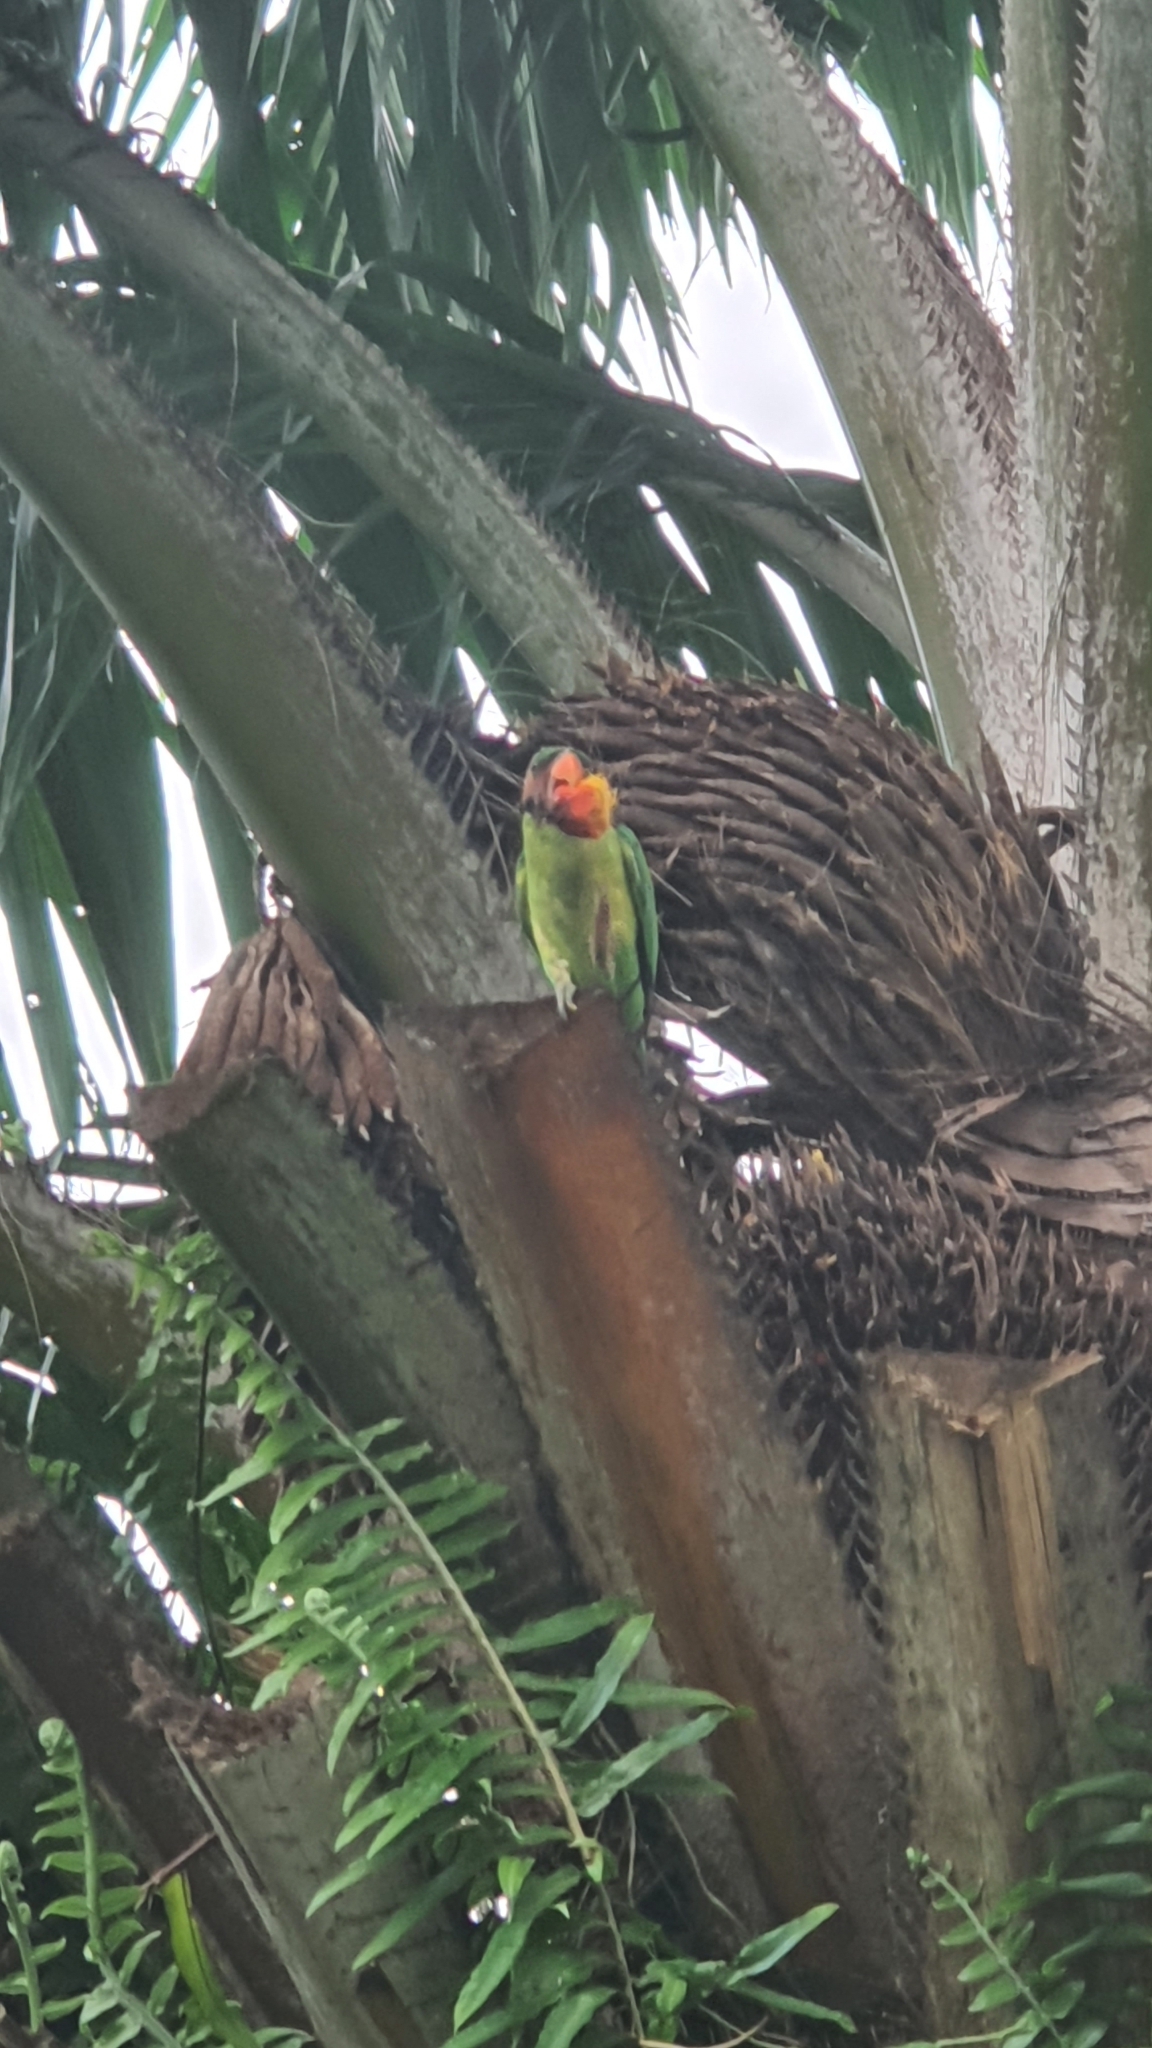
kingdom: Animalia
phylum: Chordata
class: Aves
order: Psittaciformes
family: Psittacidae
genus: Psittacula
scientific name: Psittacula longicauda
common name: Long-tailed parakeet
